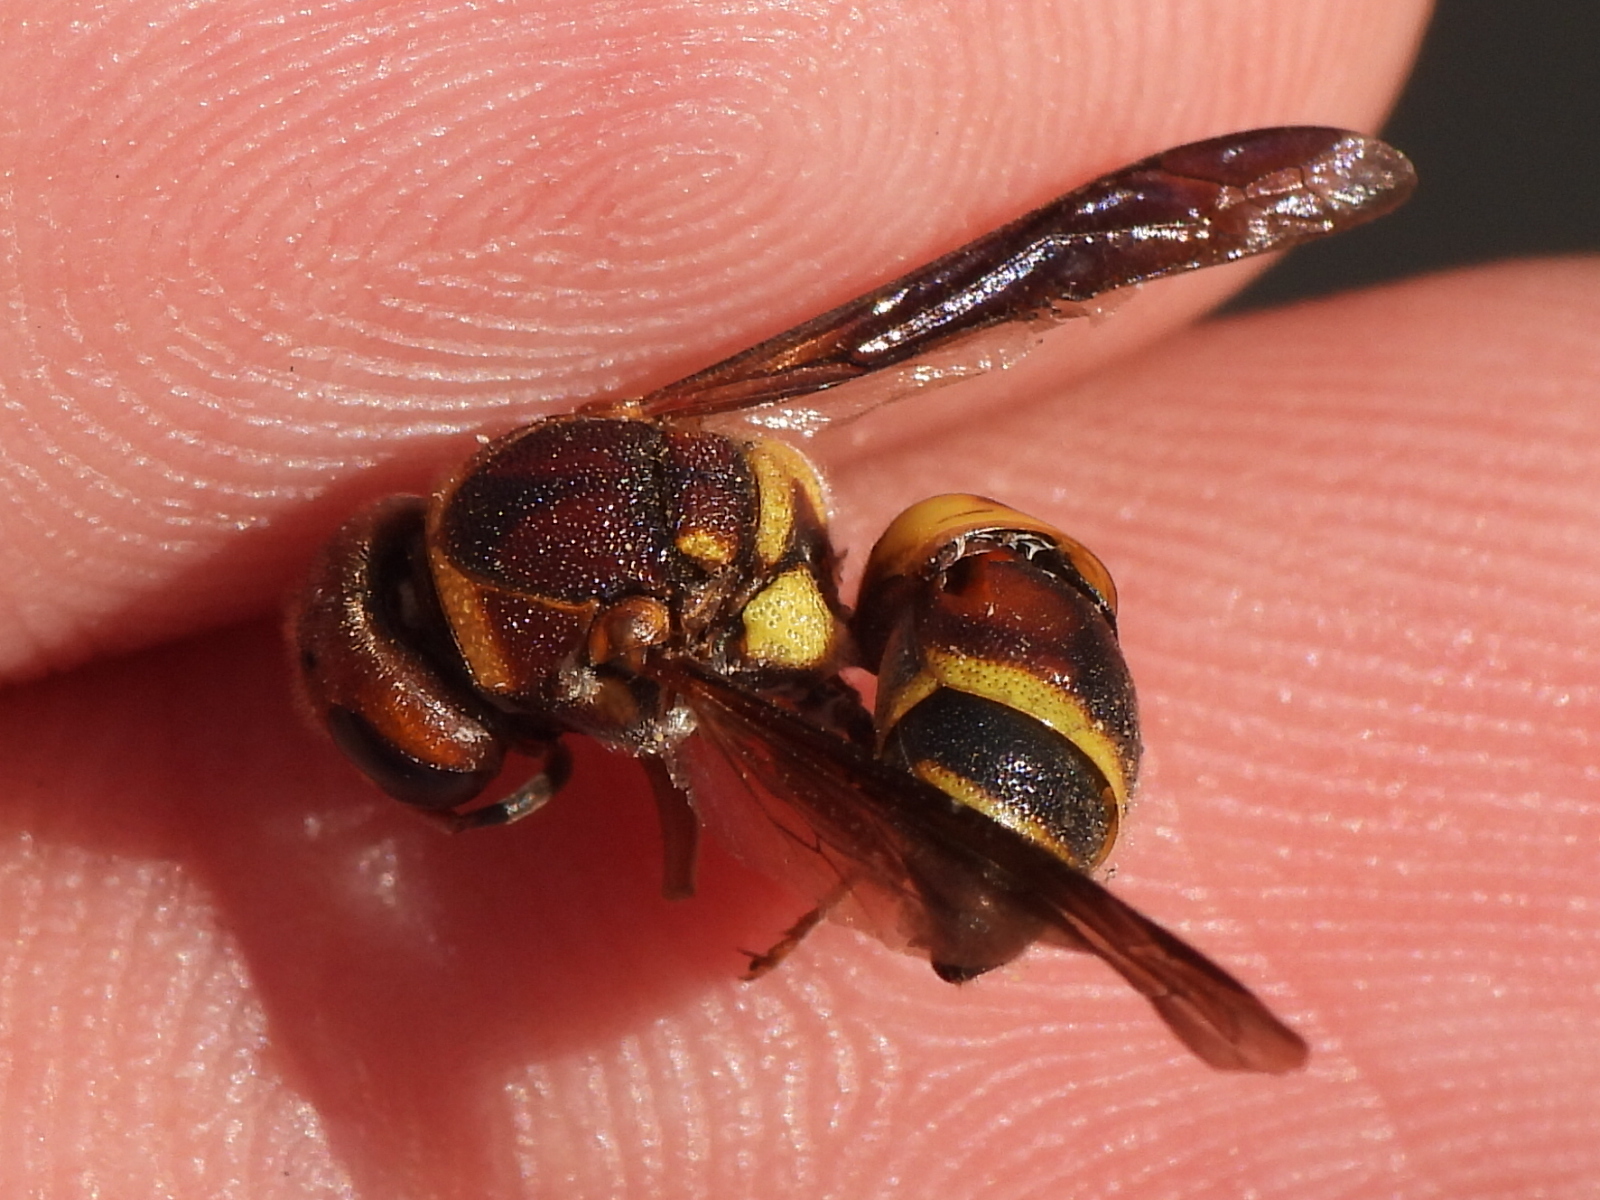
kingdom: Animalia
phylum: Arthropoda
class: Insecta
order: Hymenoptera
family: Eumenidae
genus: Euodynerus
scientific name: Euodynerus annulatus
